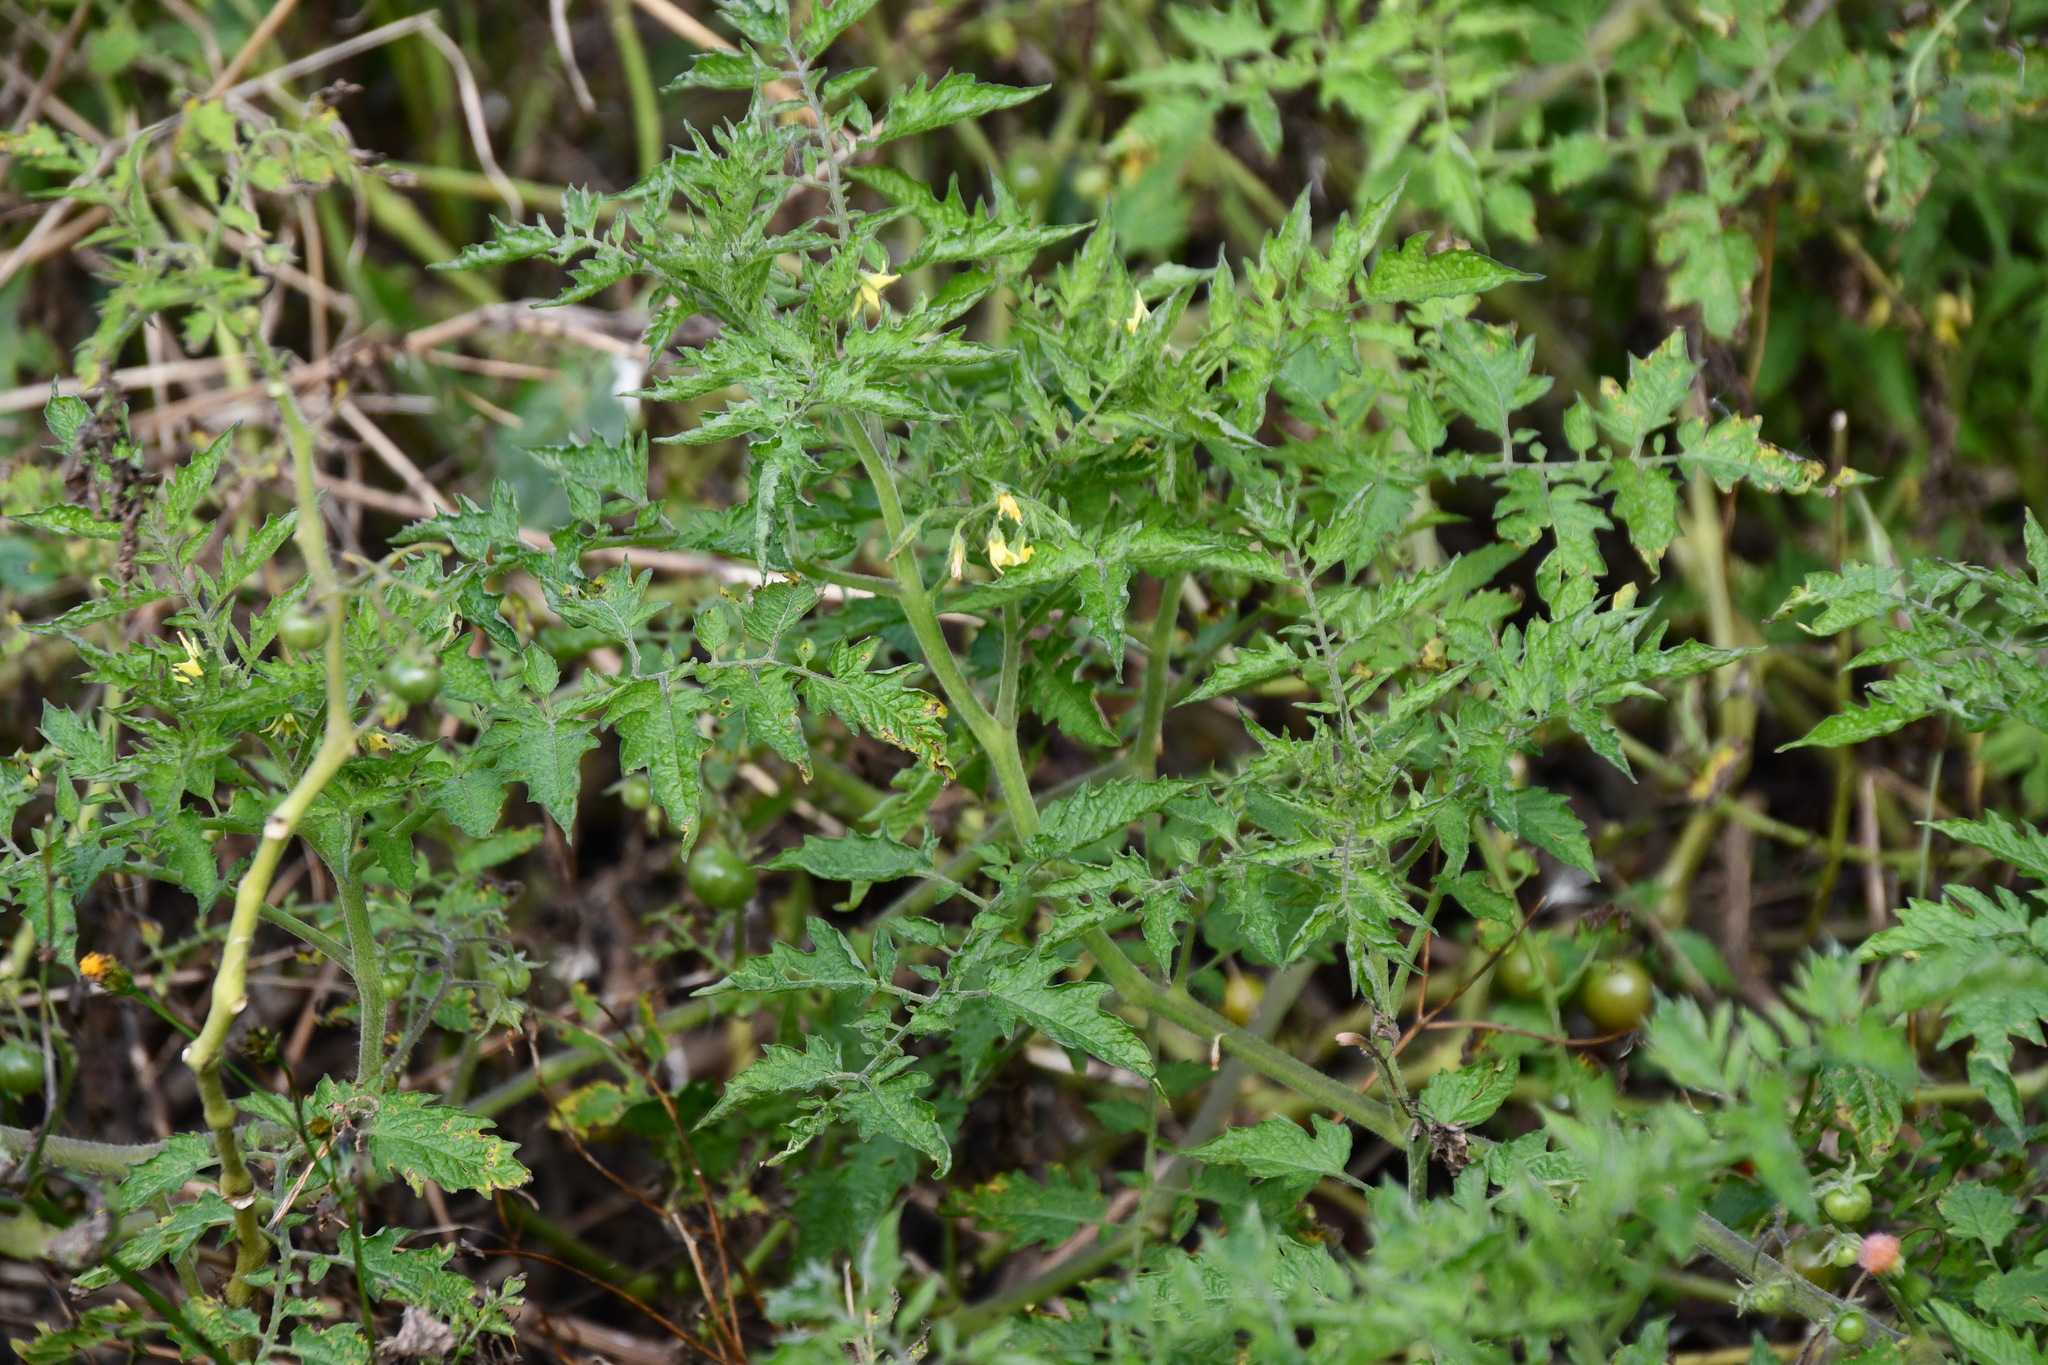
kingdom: Plantae
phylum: Tracheophyta
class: Magnoliopsida
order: Solanales
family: Solanaceae
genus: Solanum
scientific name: Solanum lycopersicum
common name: Garden tomato
